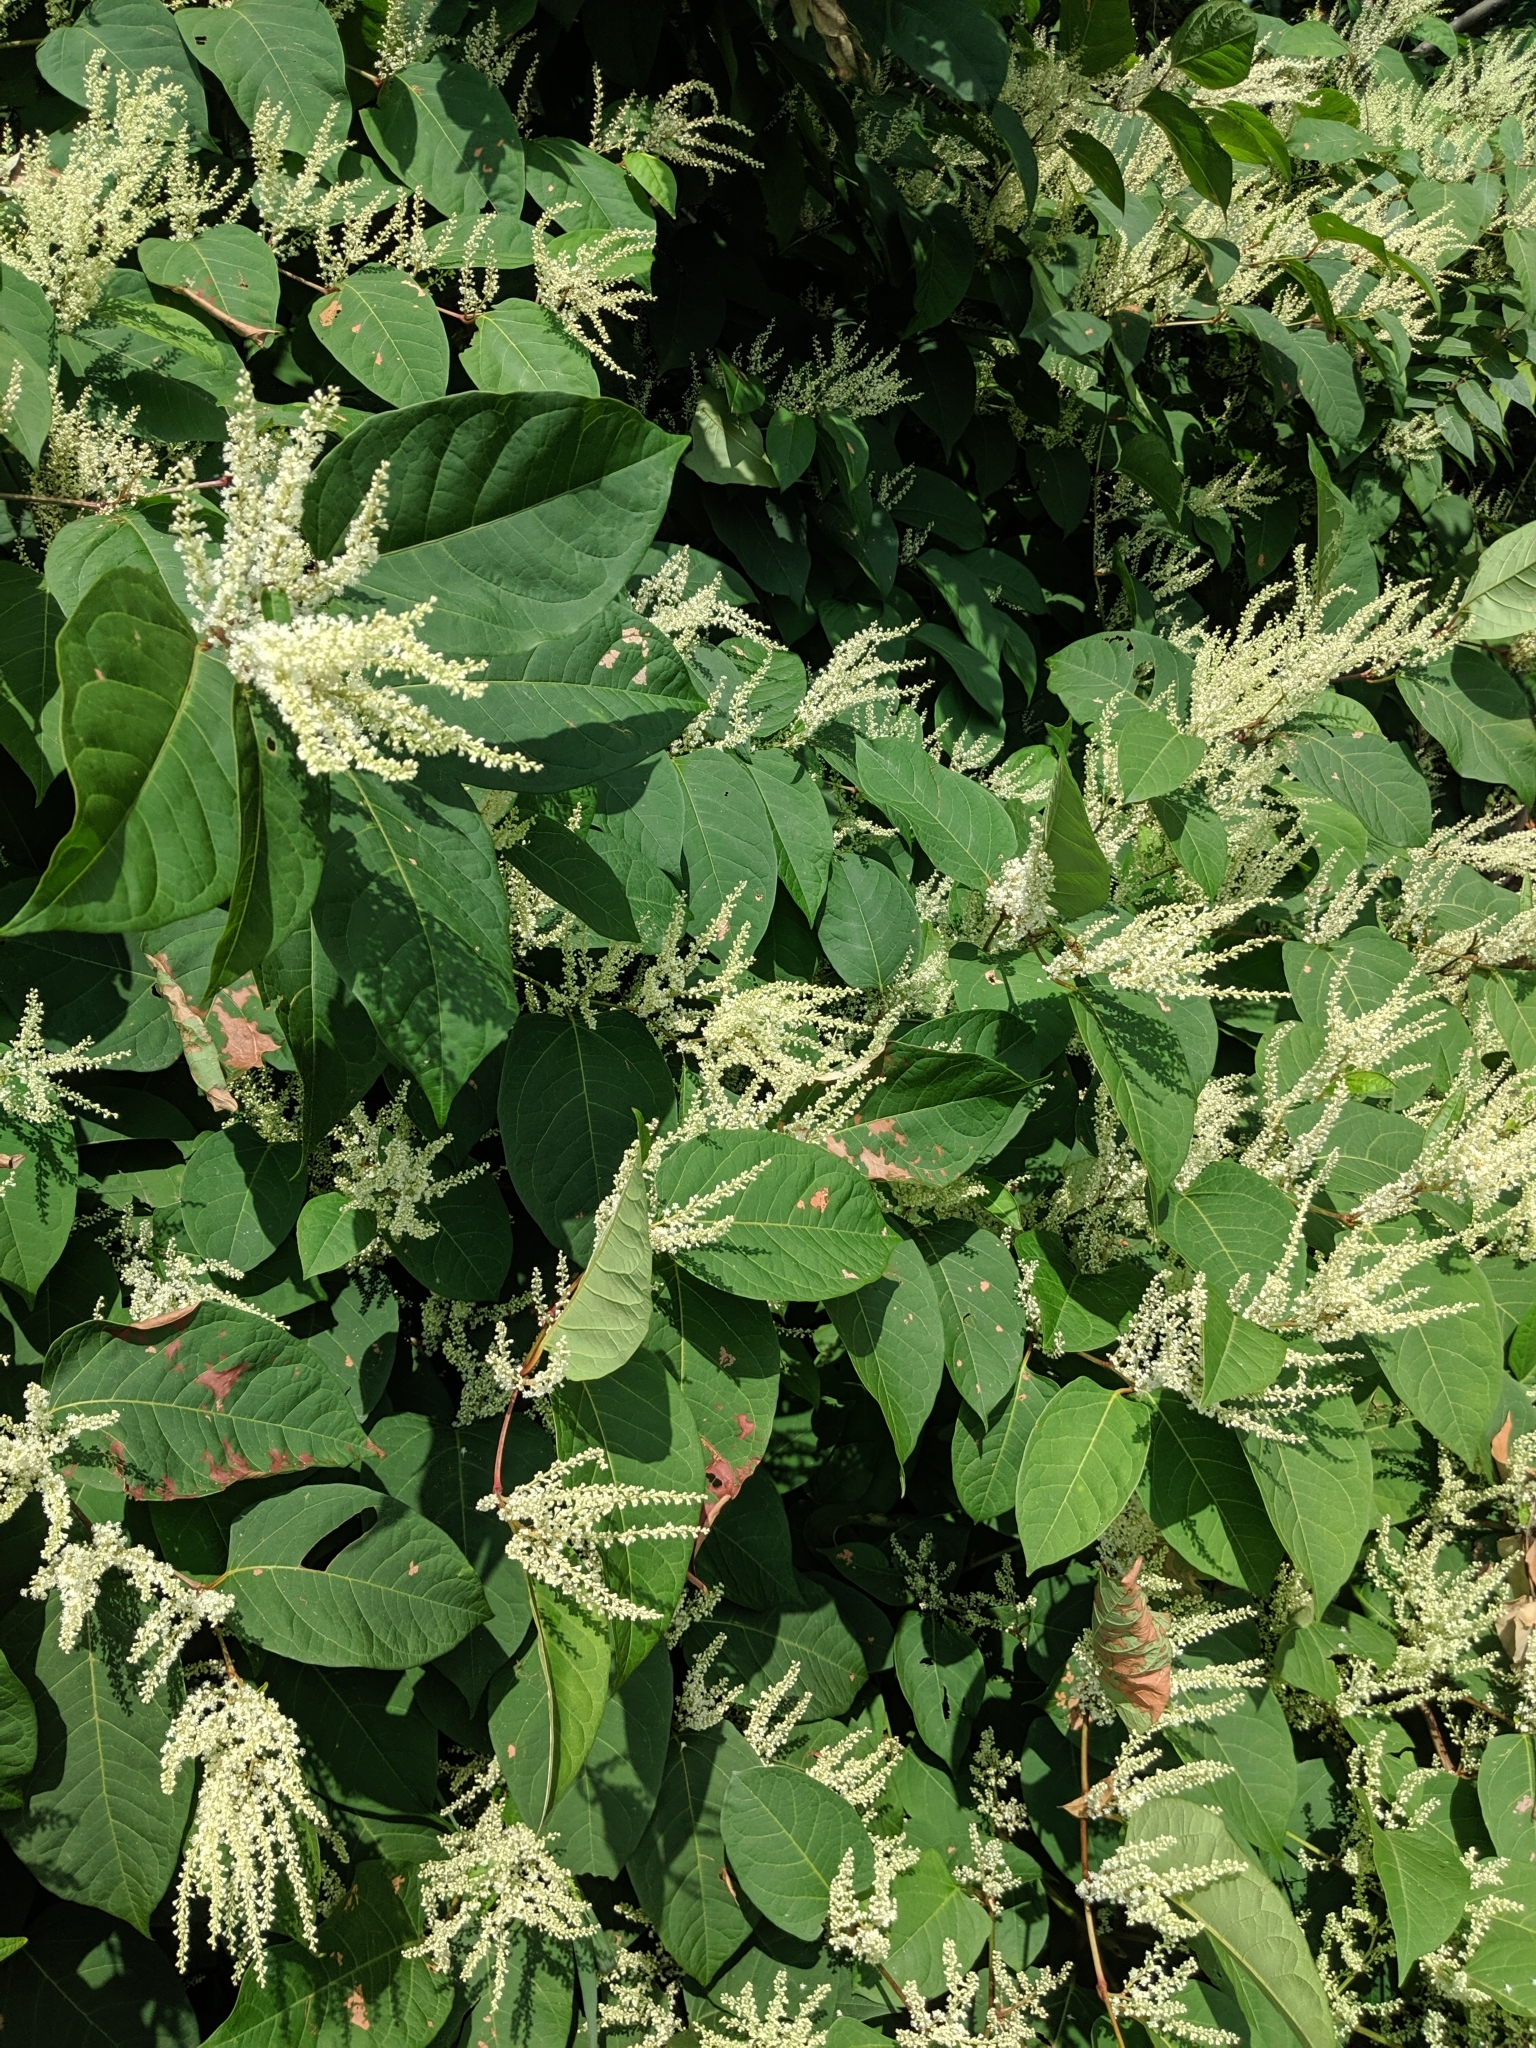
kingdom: Plantae
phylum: Tracheophyta
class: Magnoliopsida
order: Caryophyllales
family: Polygonaceae
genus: Reynoutria
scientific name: Reynoutria japonica
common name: Japanese knotweed
